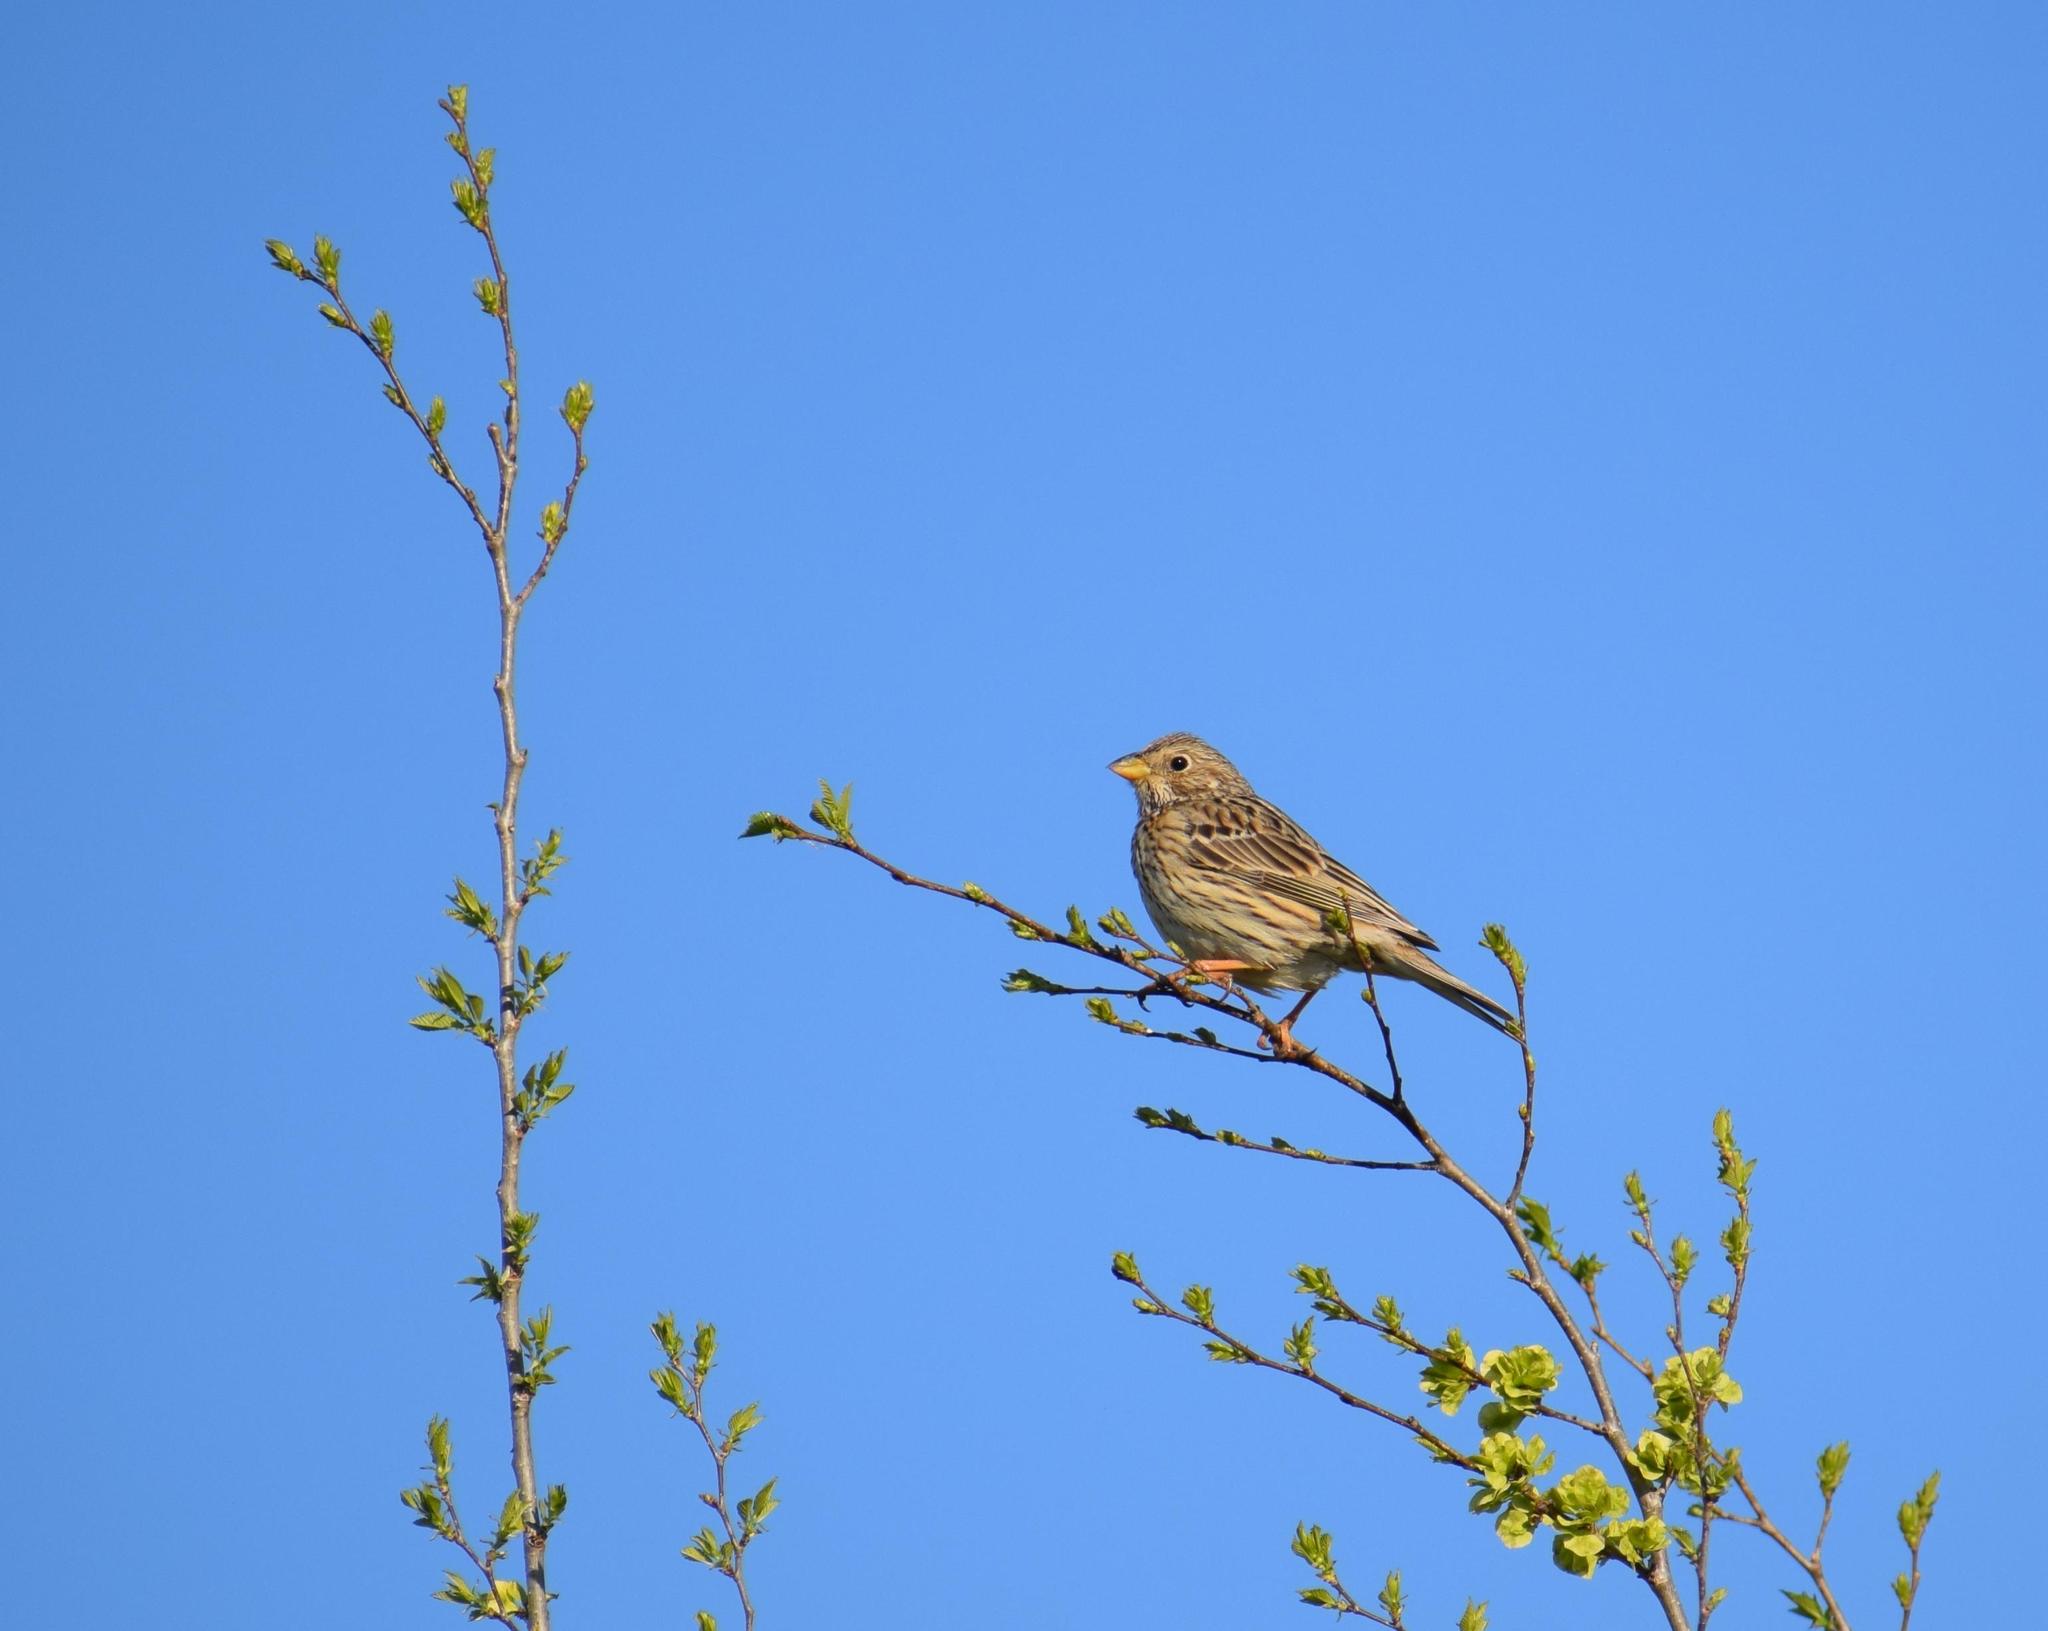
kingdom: Animalia
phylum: Chordata
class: Aves
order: Passeriformes
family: Emberizidae
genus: Emberiza
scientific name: Emberiza calandra
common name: Corn bunting
